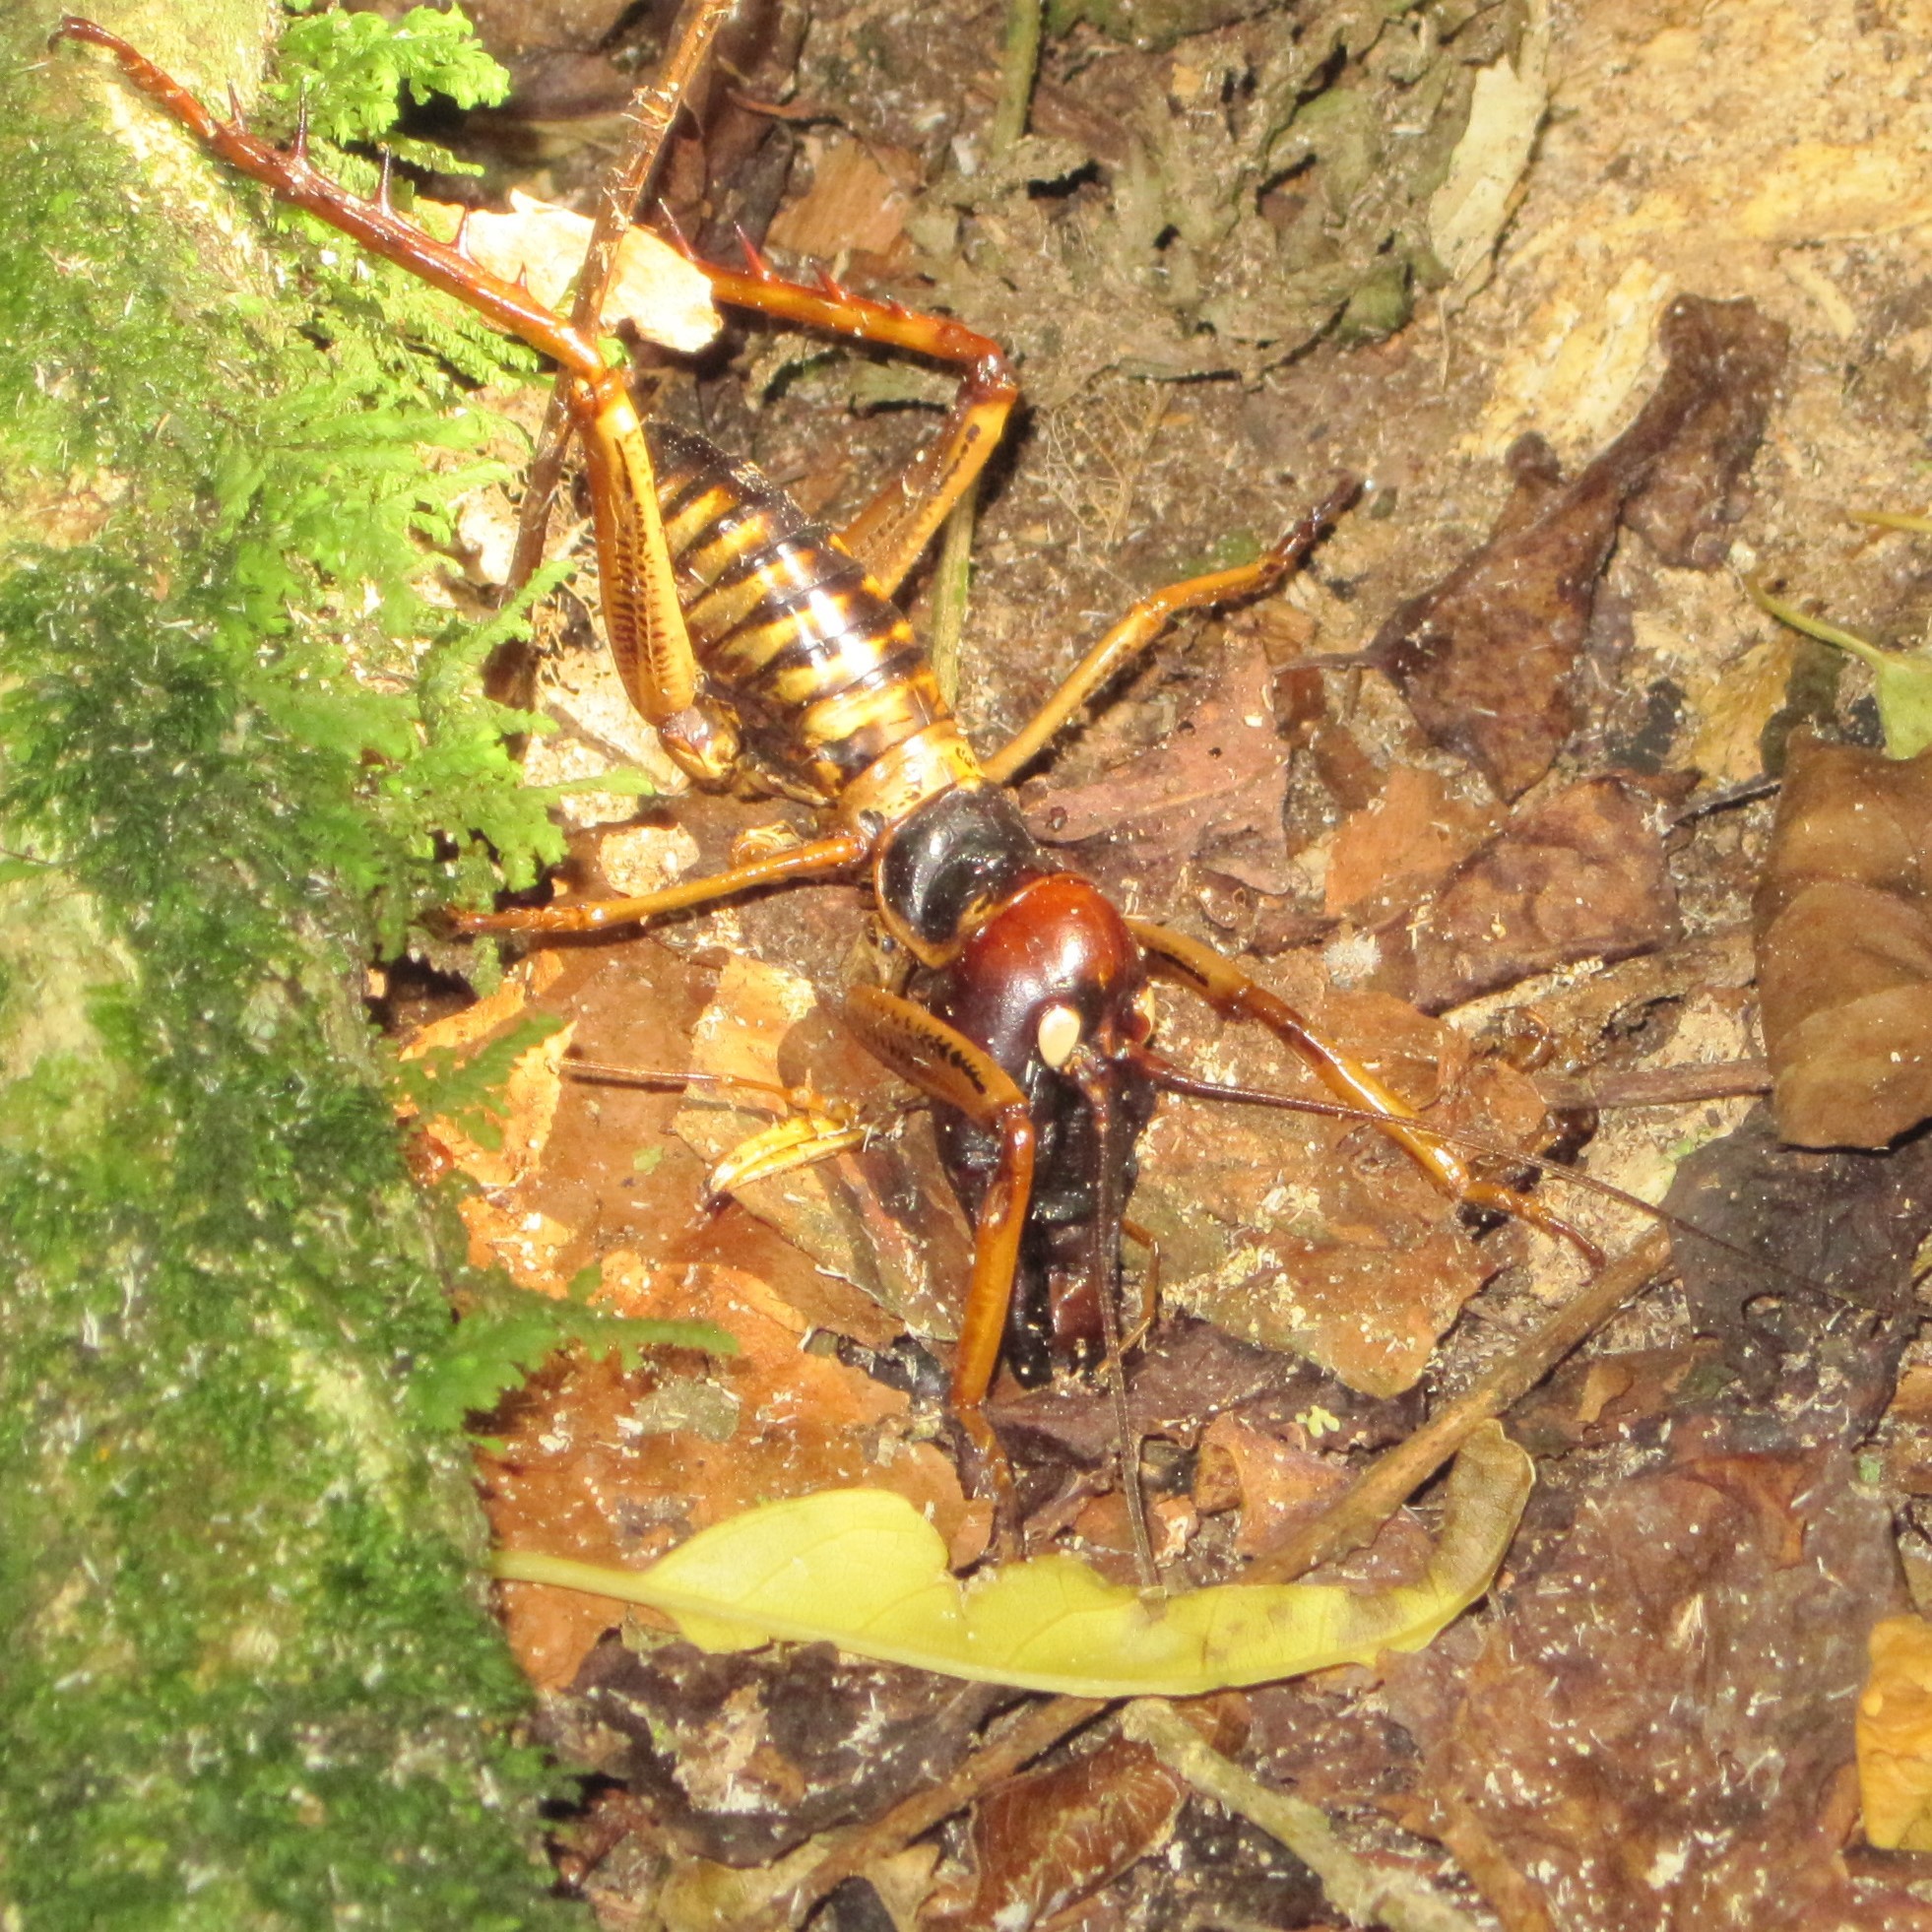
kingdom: Animalia
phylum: Arthropoda
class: Insecta
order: Orthoptera
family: Anostostomatidae
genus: Hemideina
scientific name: Hemideina crassidens
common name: Wellington tree weta
